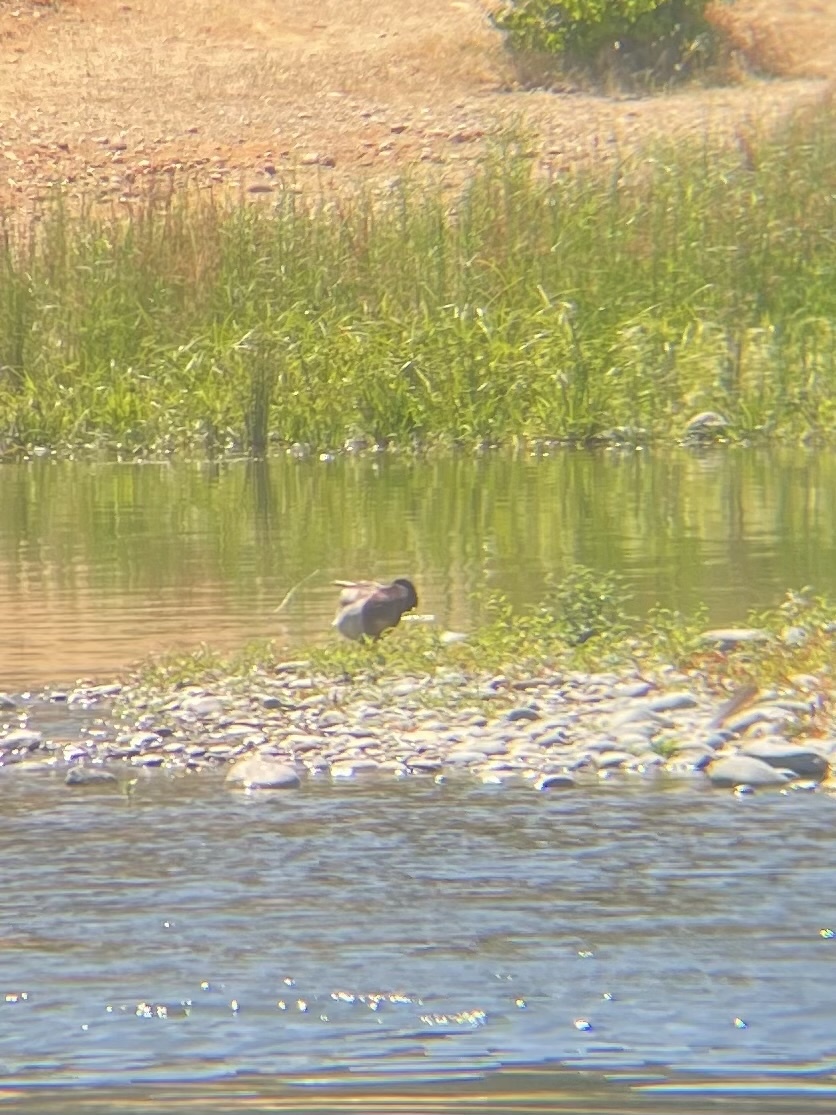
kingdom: Animalia
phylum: Chordata
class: Aves
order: Anseriformes
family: Anatidae
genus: Anas
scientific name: Anas platyrhynchos
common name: Mallard
